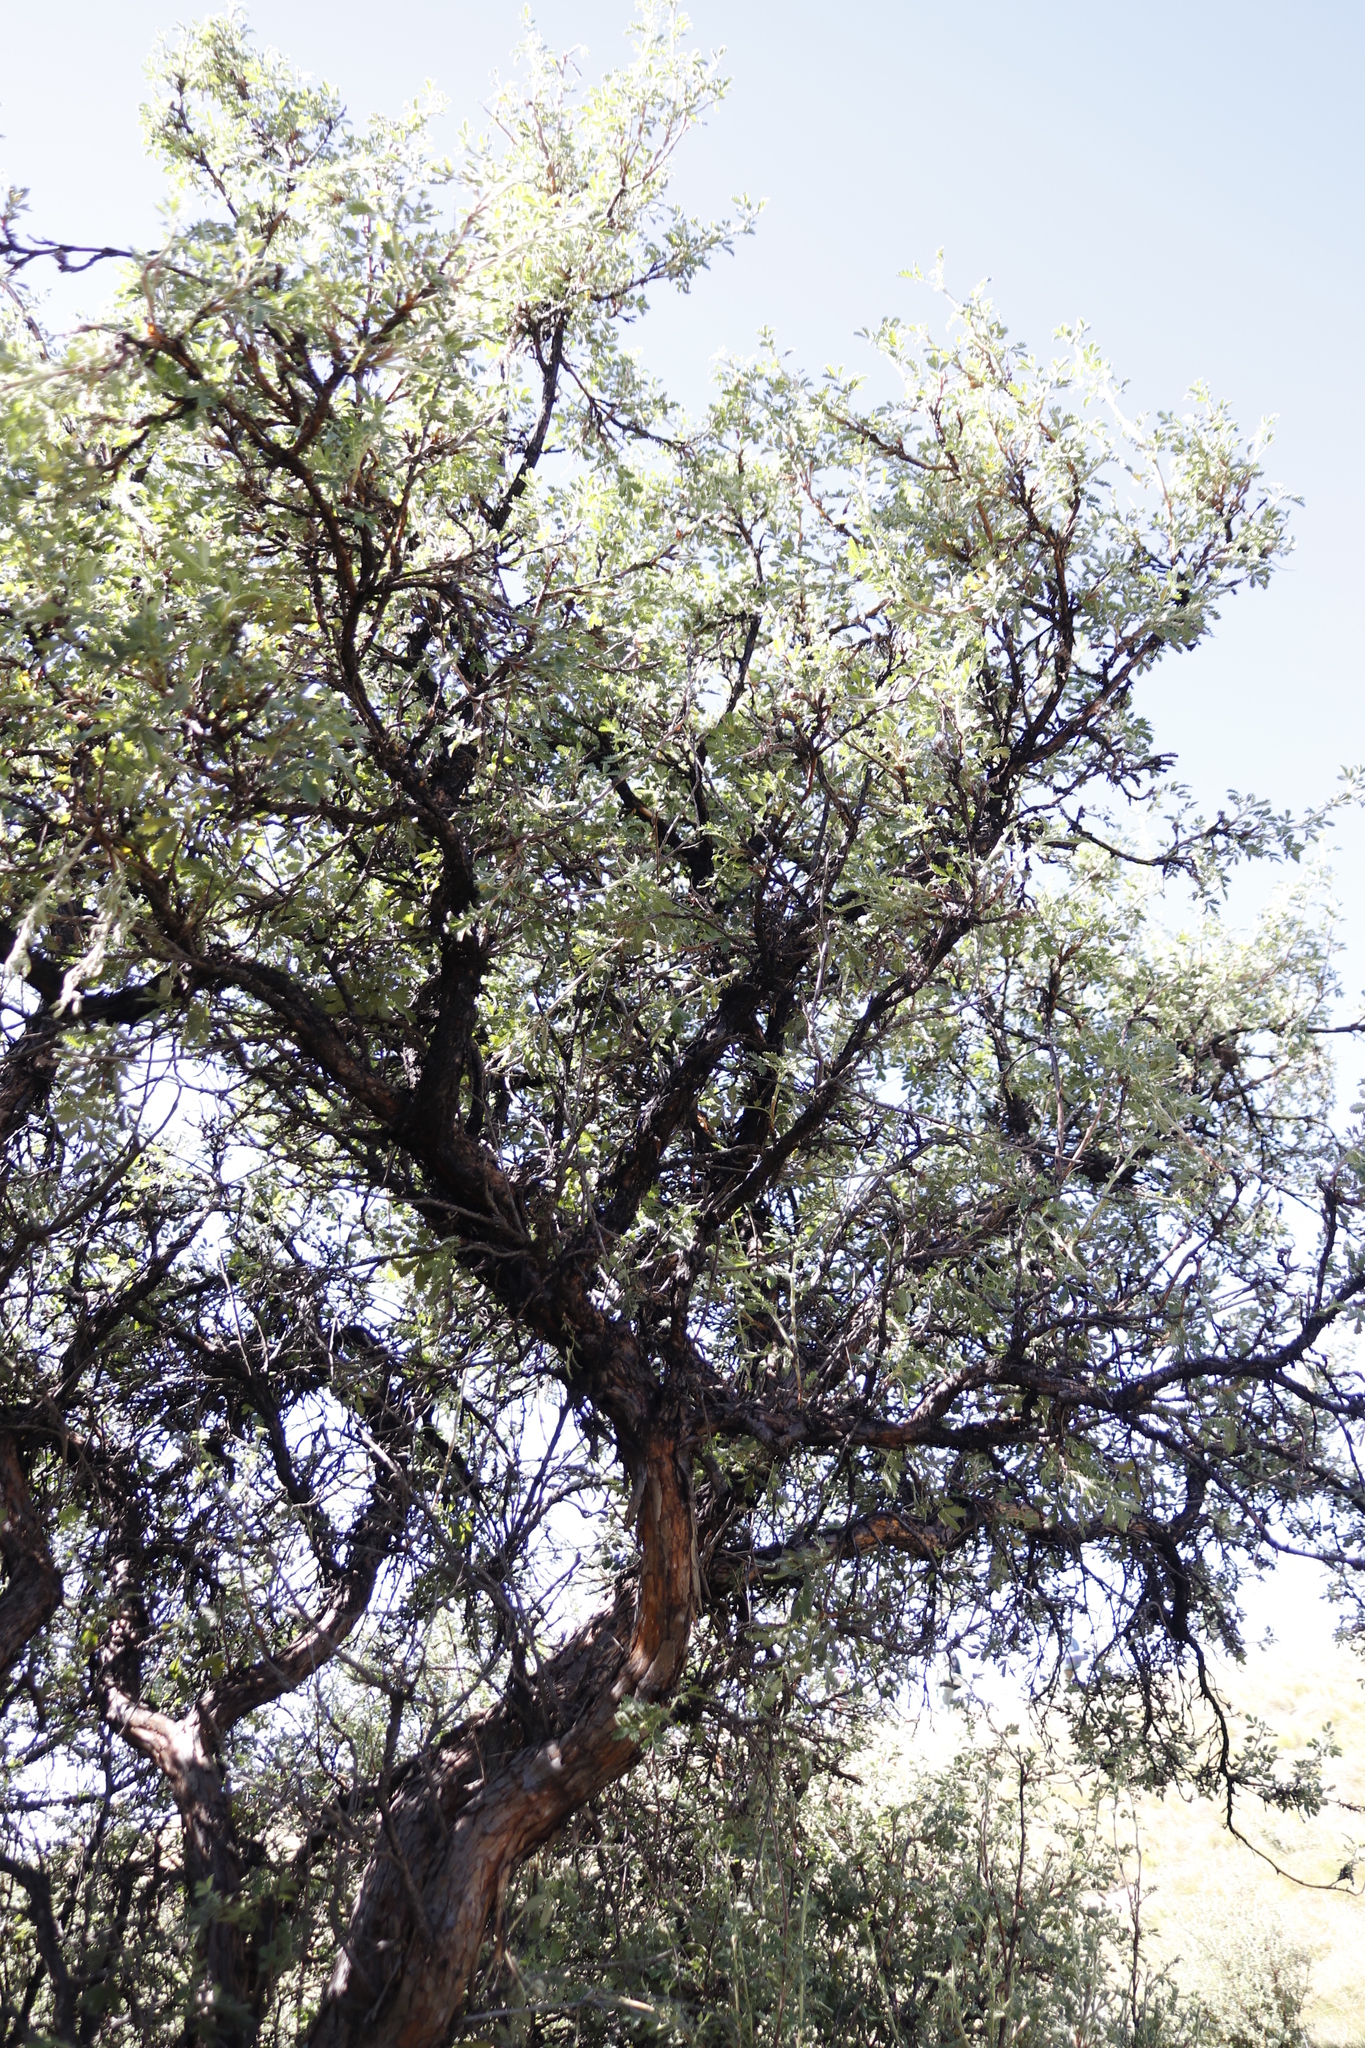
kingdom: Plantae
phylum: Tracheophyta
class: Magnoliopsida
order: Rosales
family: Rosaceae
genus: Leucosidea
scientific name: Leucosidea sericea
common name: Oldwood
